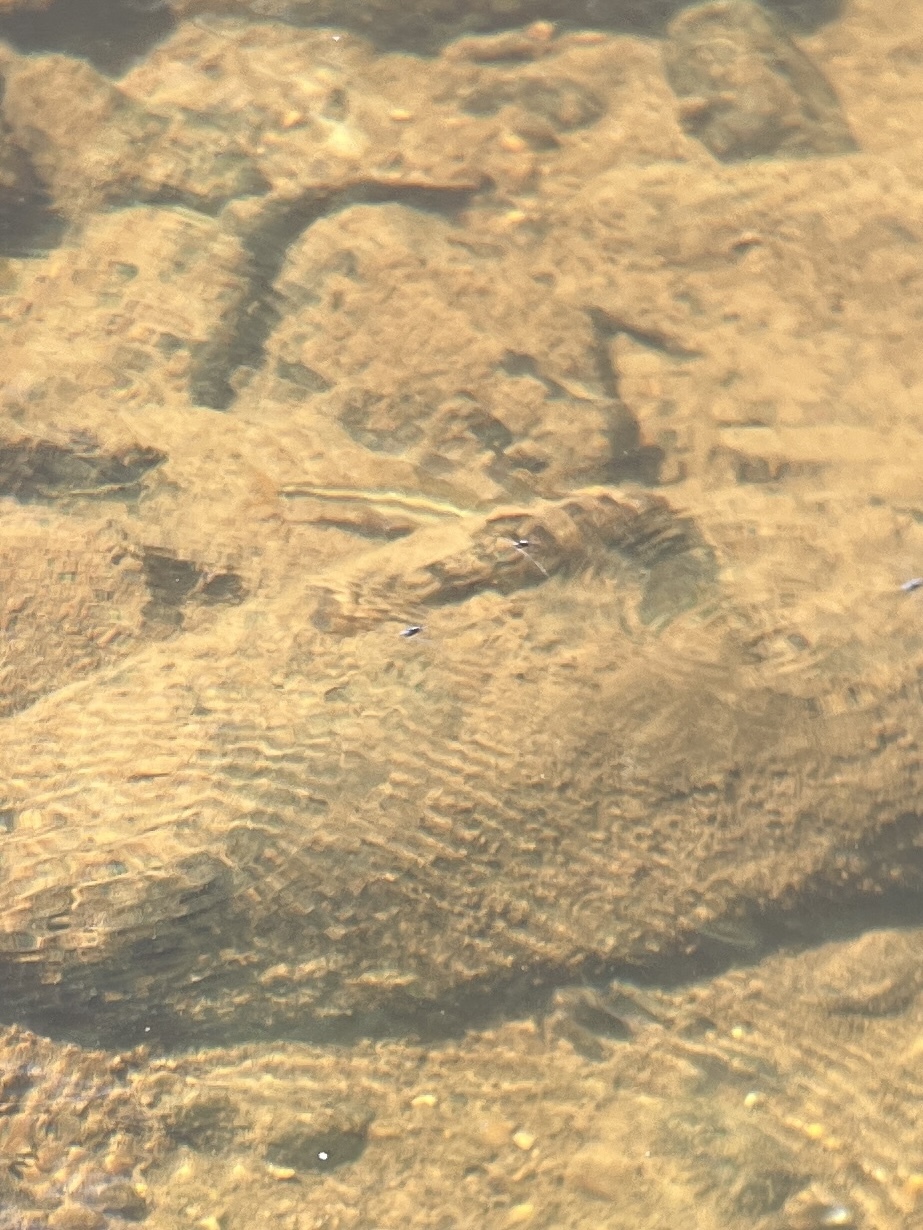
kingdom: Animalia
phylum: Chordata
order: Cypriniformes
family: Catostomidae
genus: Hypentelium
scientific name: Hypentelium nigricans
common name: Northern hog sucker
